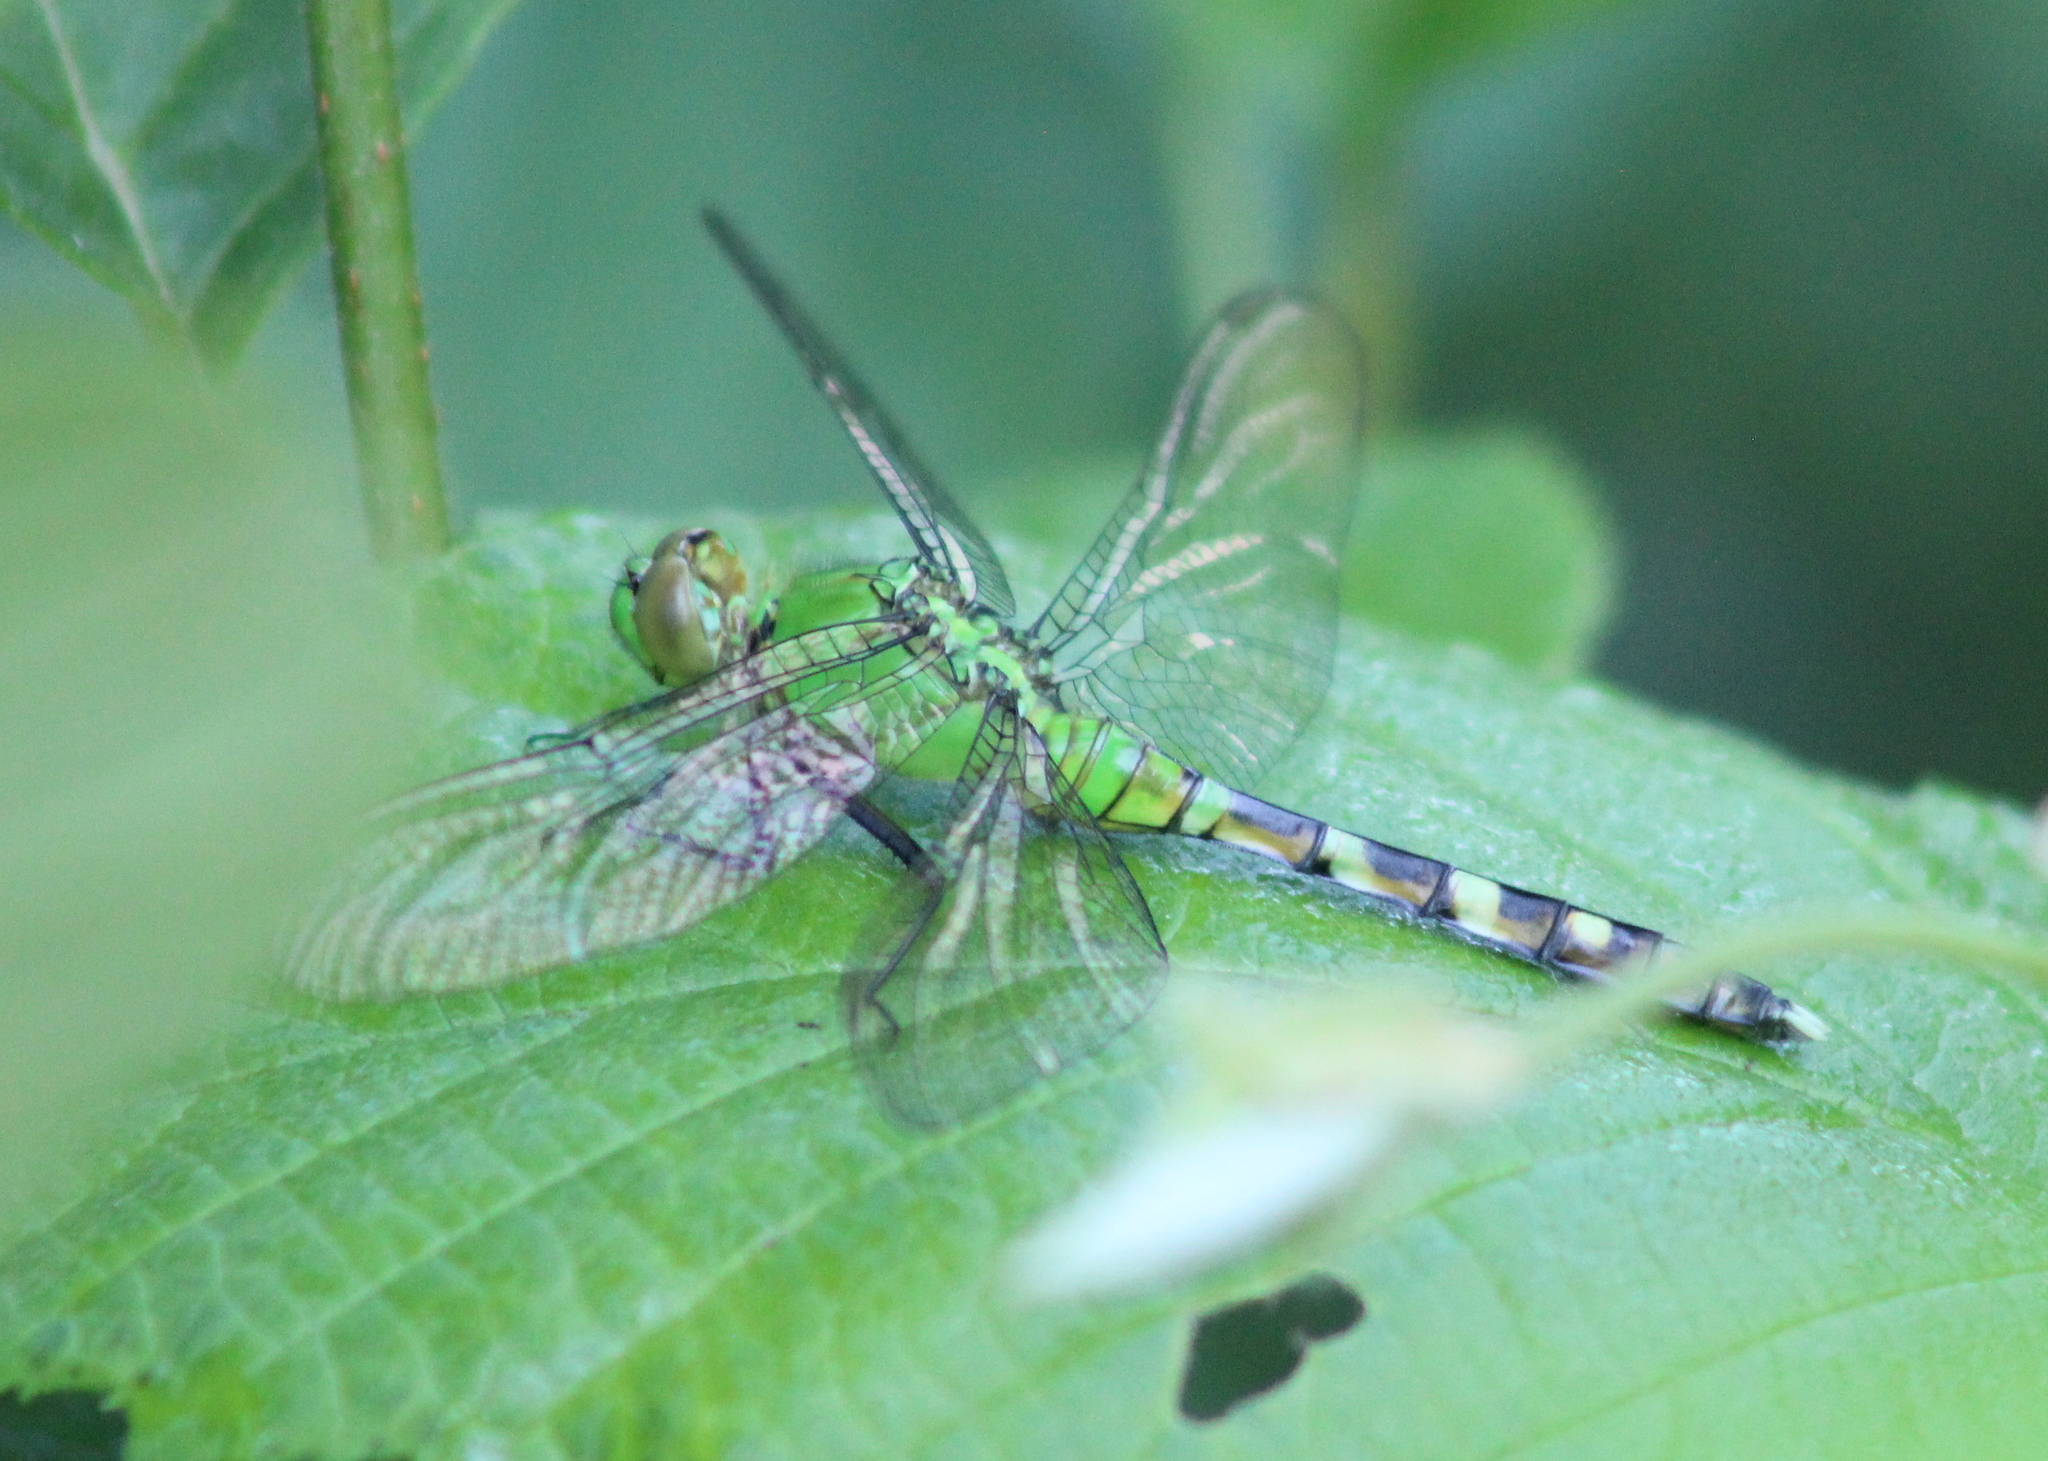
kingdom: Animalia
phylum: Arthropoda
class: Insecta
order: Odonata
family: Libellulidae
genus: Erythemis
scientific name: Erythemis simplicicollis
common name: Eastern pondhawk
